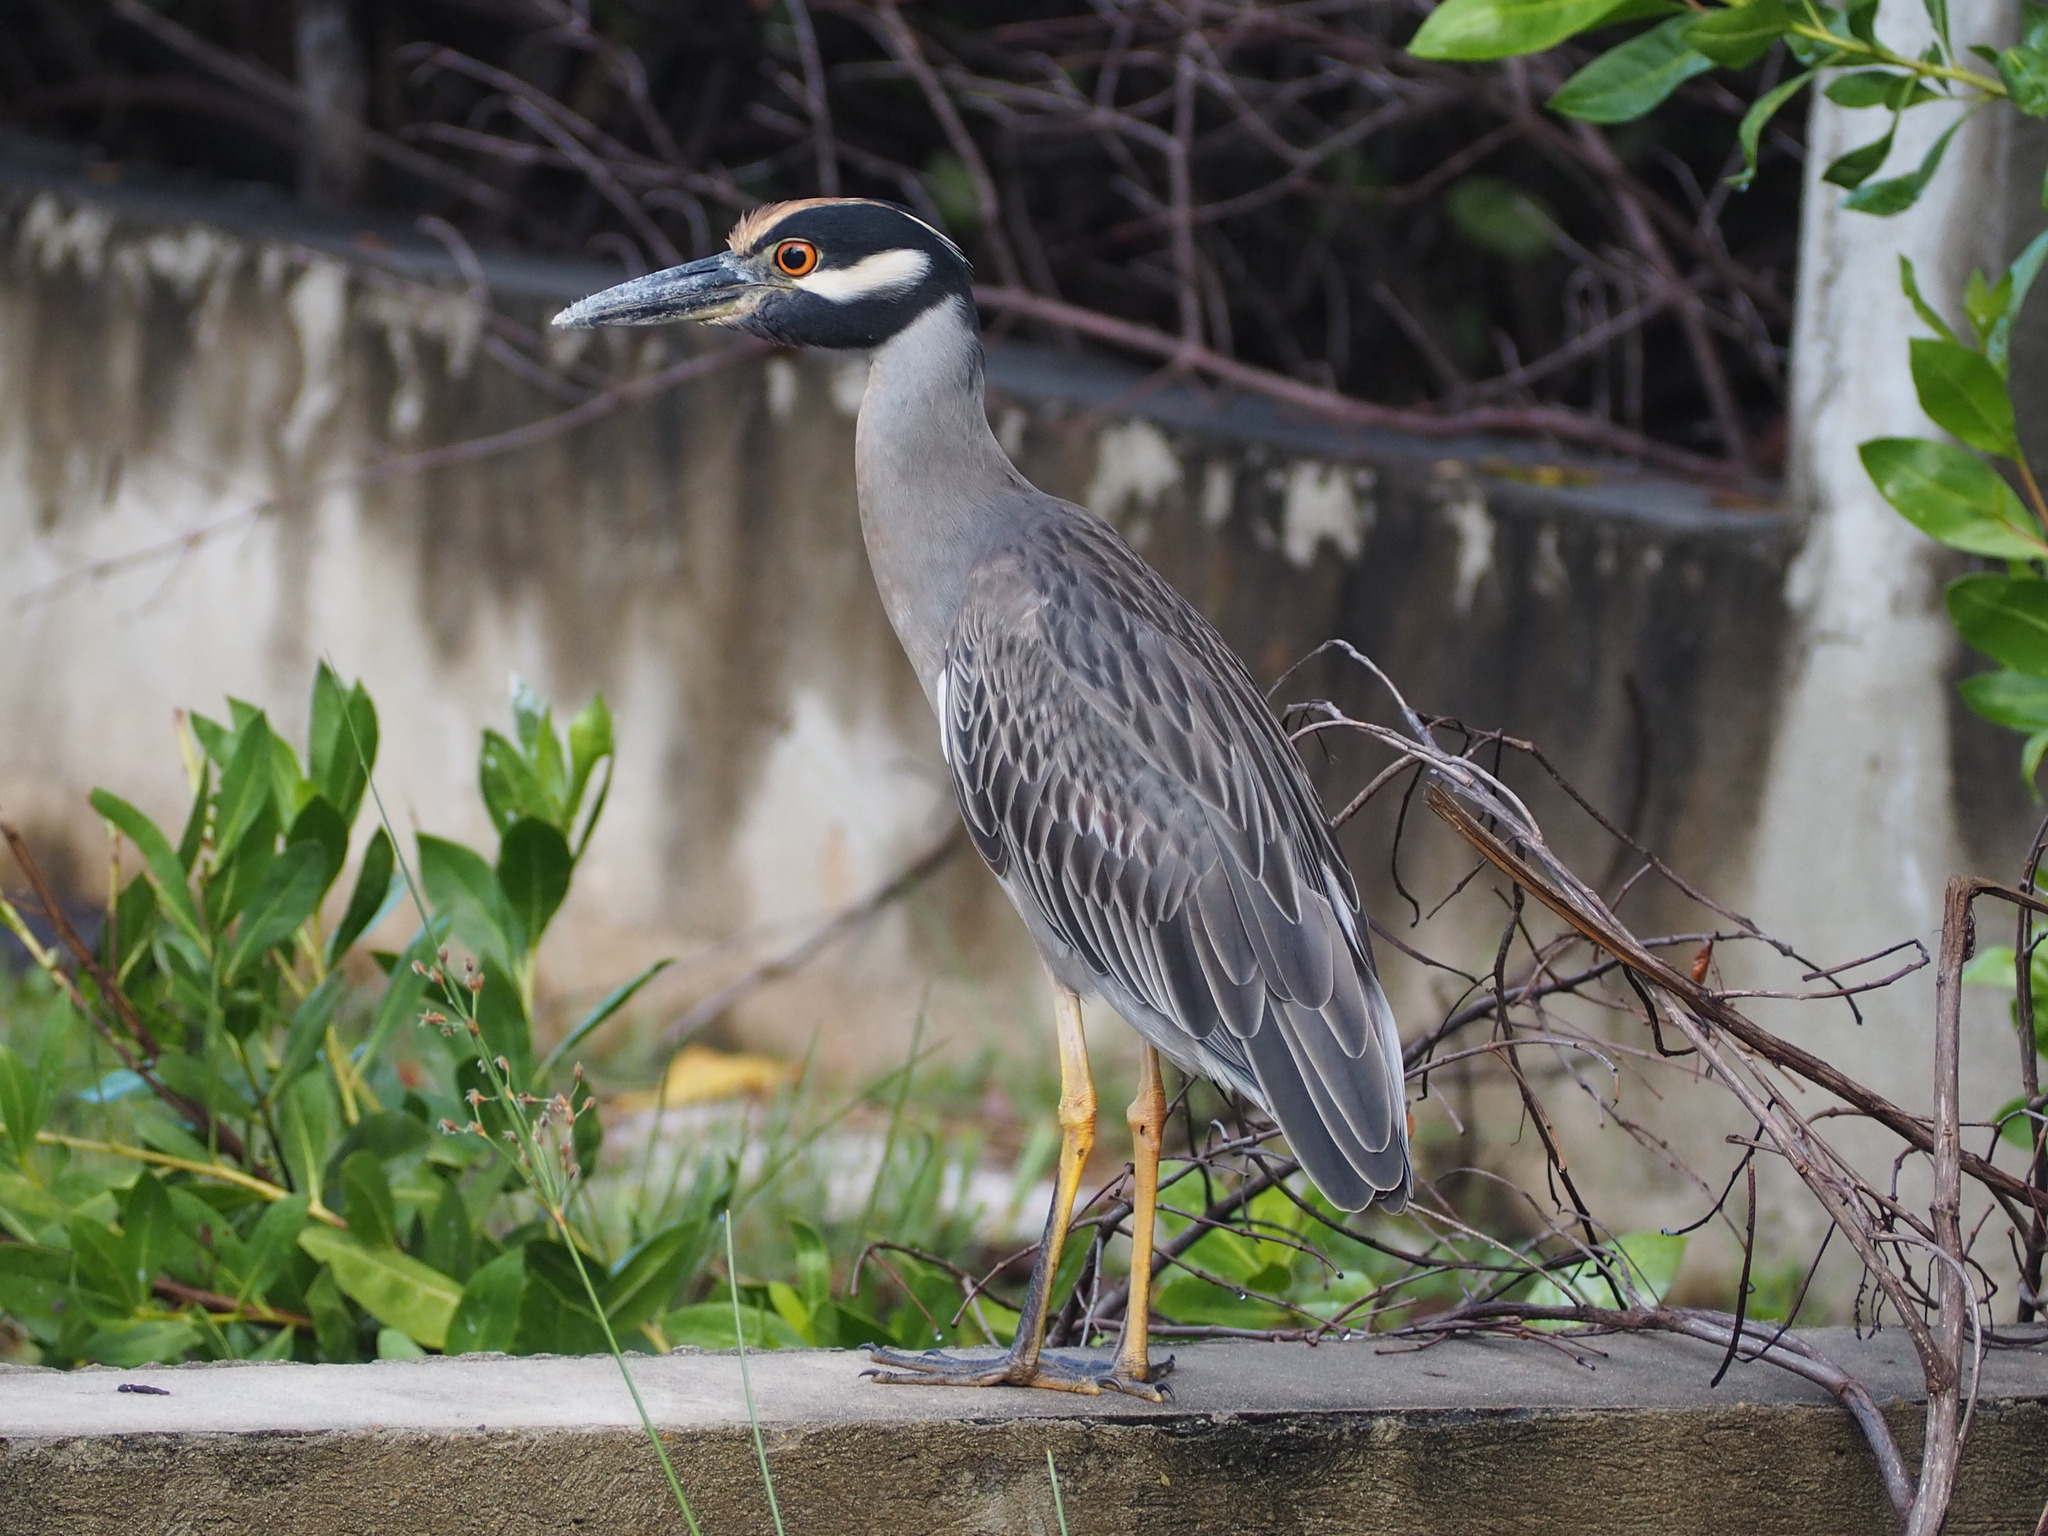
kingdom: Animalia
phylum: Chordata
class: Aves
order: Pelecaniformes
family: Ardeidae
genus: Nyctanassa
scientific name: Nyctanassa violacea
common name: Yellow-crowned night heron
